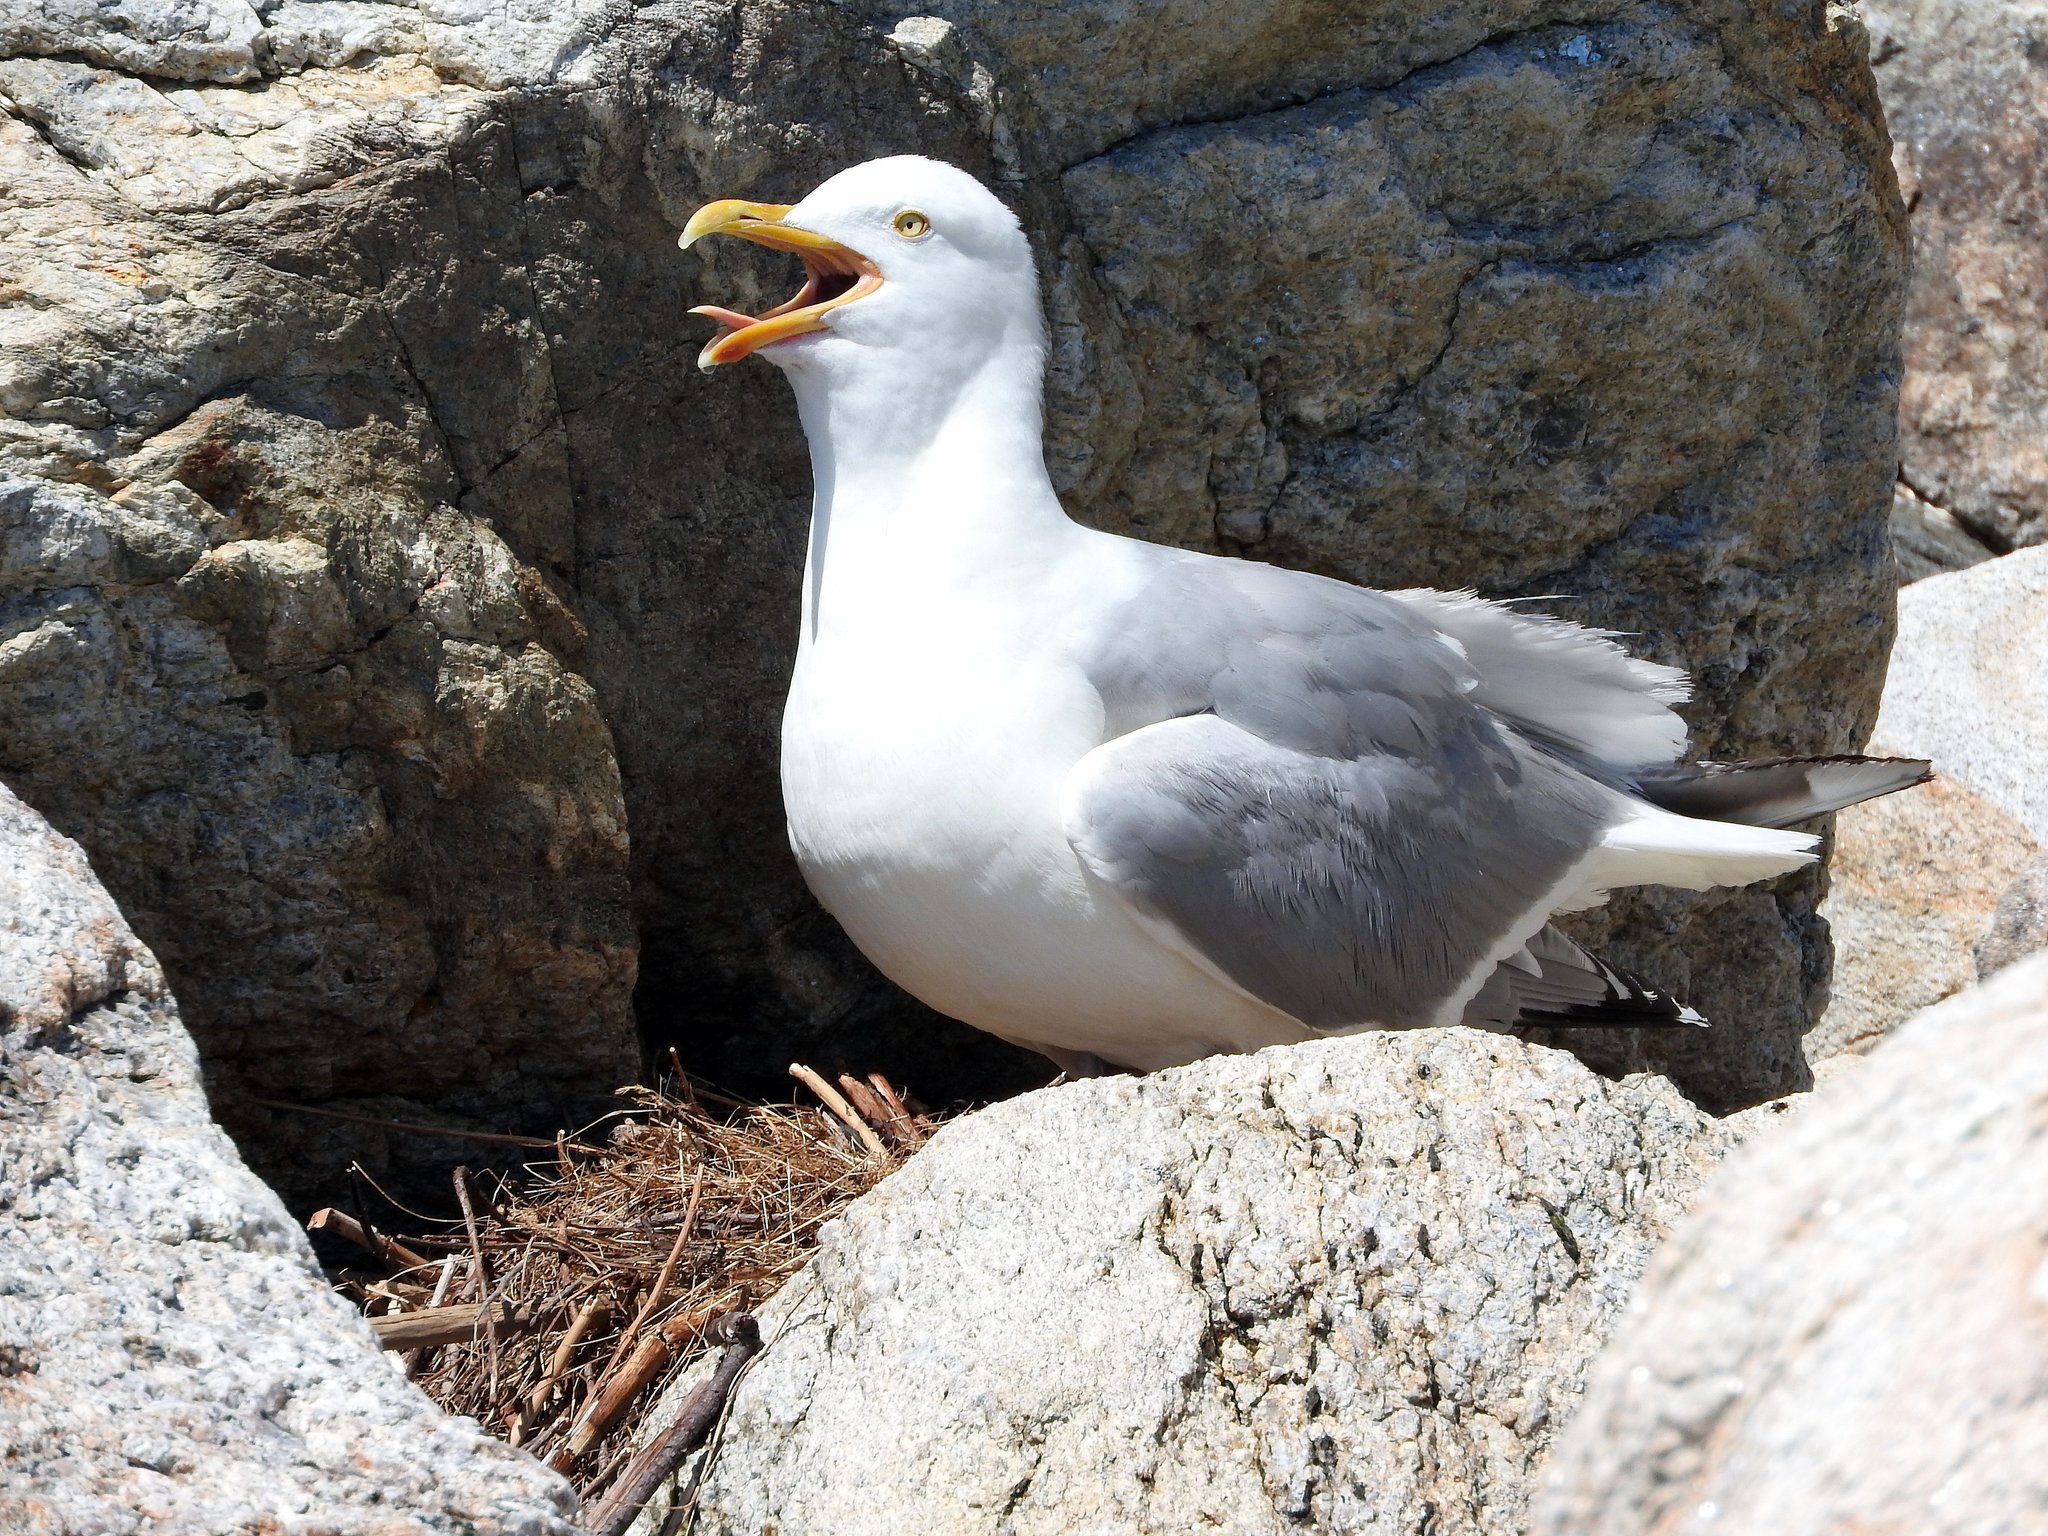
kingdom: Animalia
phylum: Chordata
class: Aves
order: Charadriiformes
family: Laridae
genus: Larus
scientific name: Larus argentatus
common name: Herring gull
